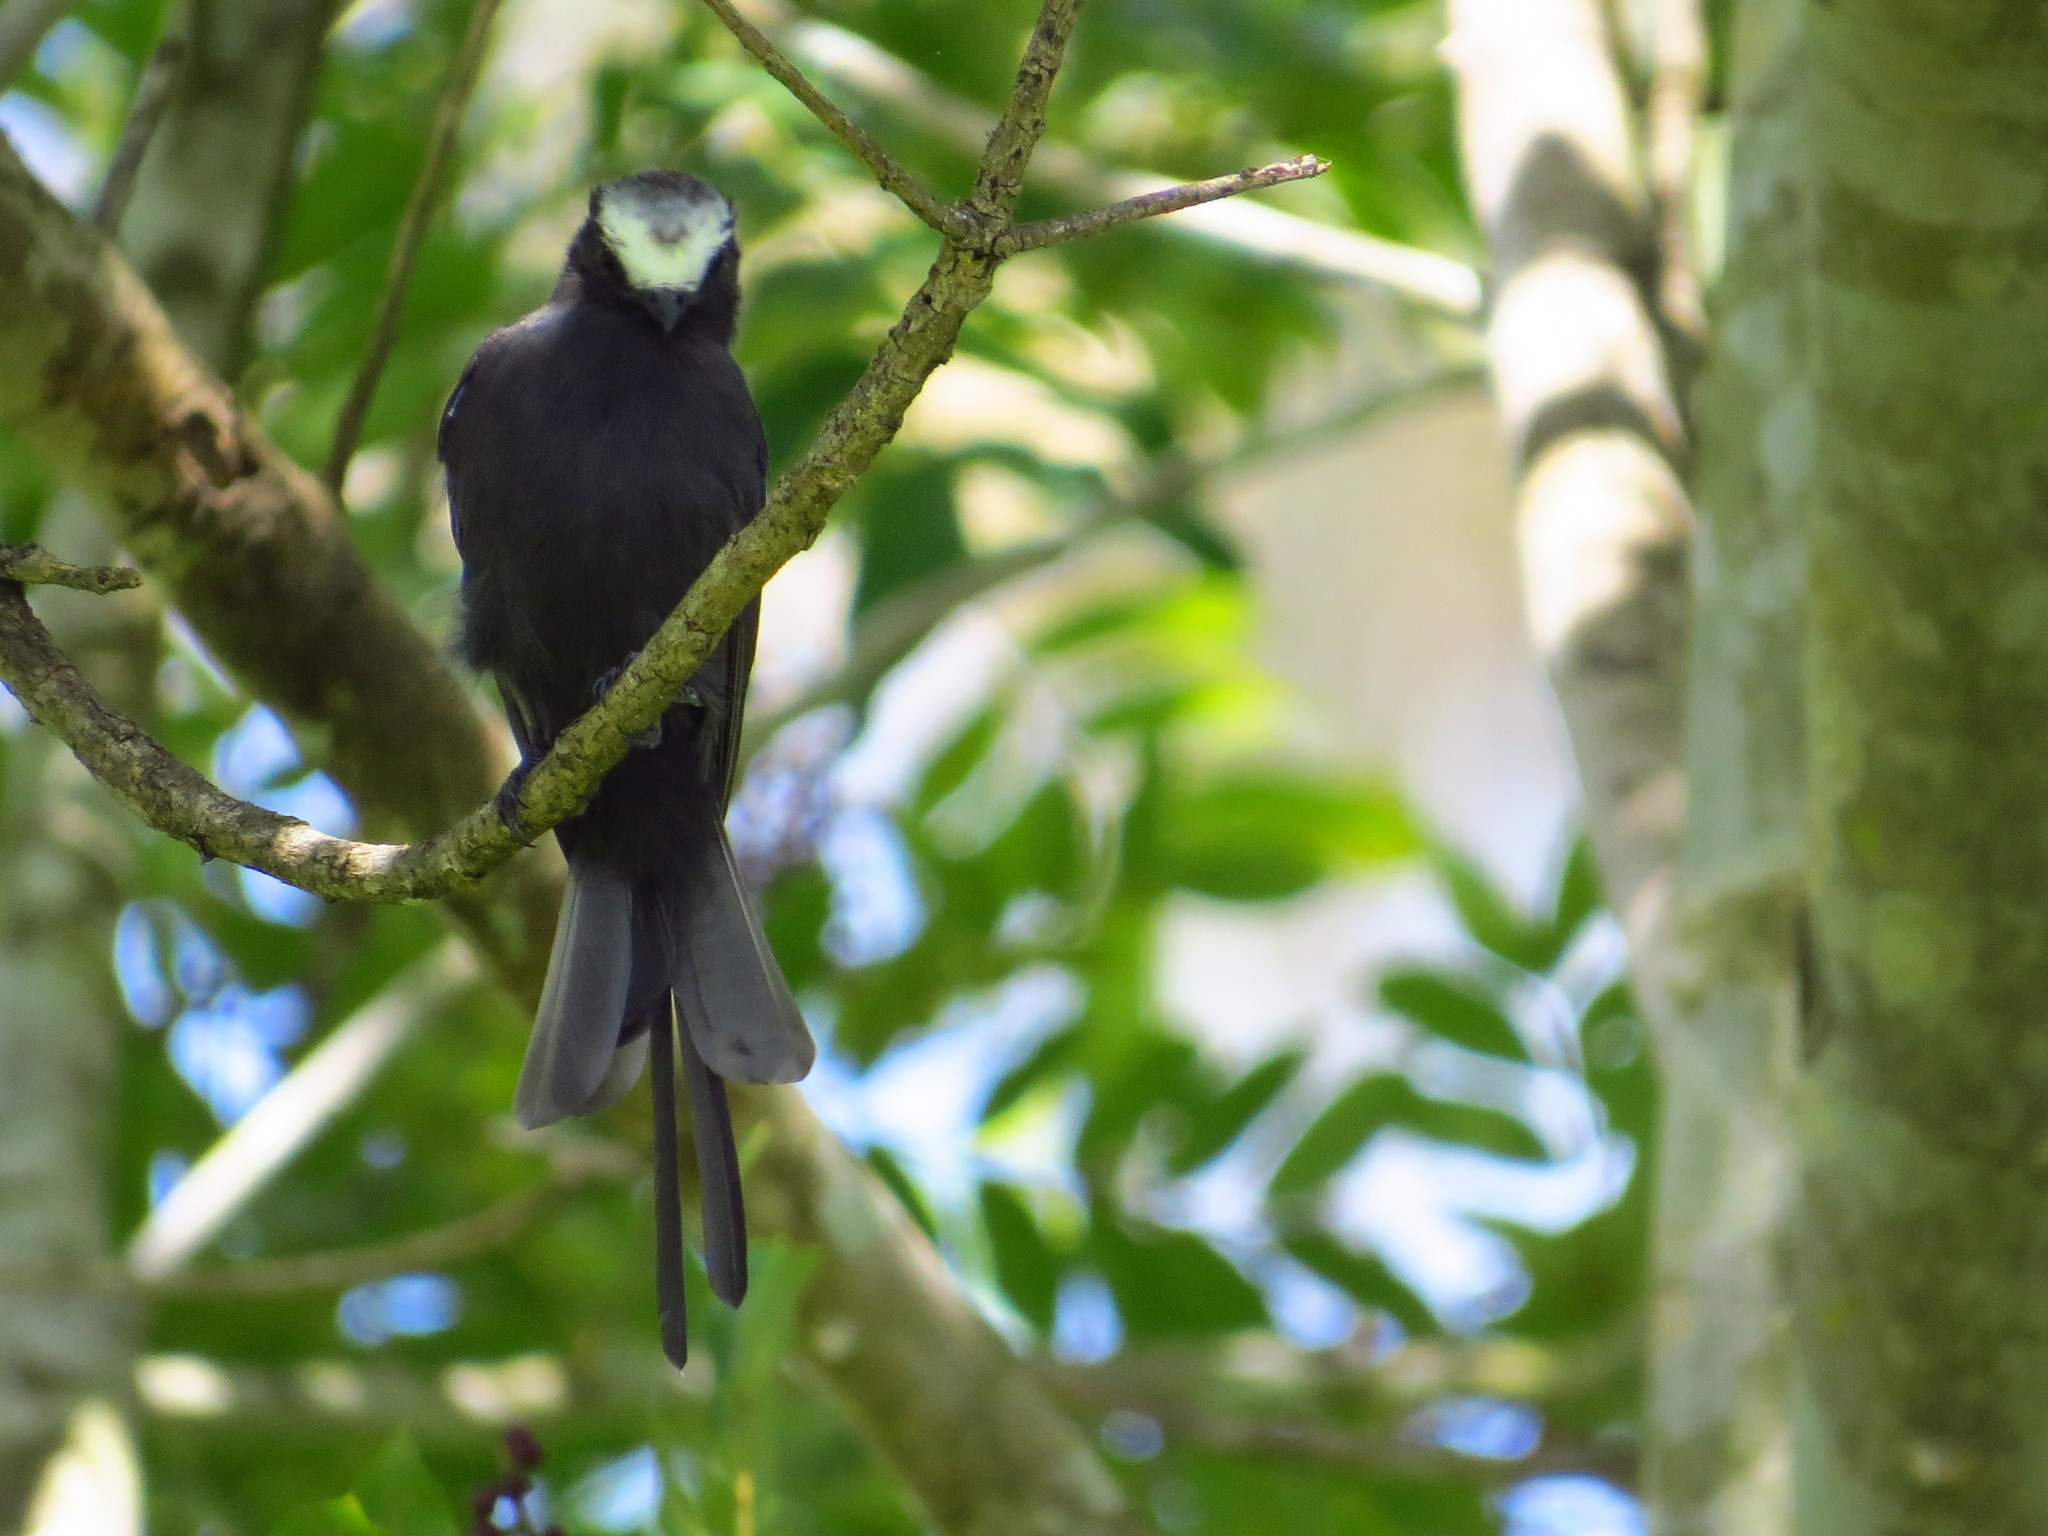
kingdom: Animalia
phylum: Chordata
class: Aves
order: Passeriformes
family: Tyrannidae
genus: Colonia
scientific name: Colonia colonus
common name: Long-tailed tyrant
